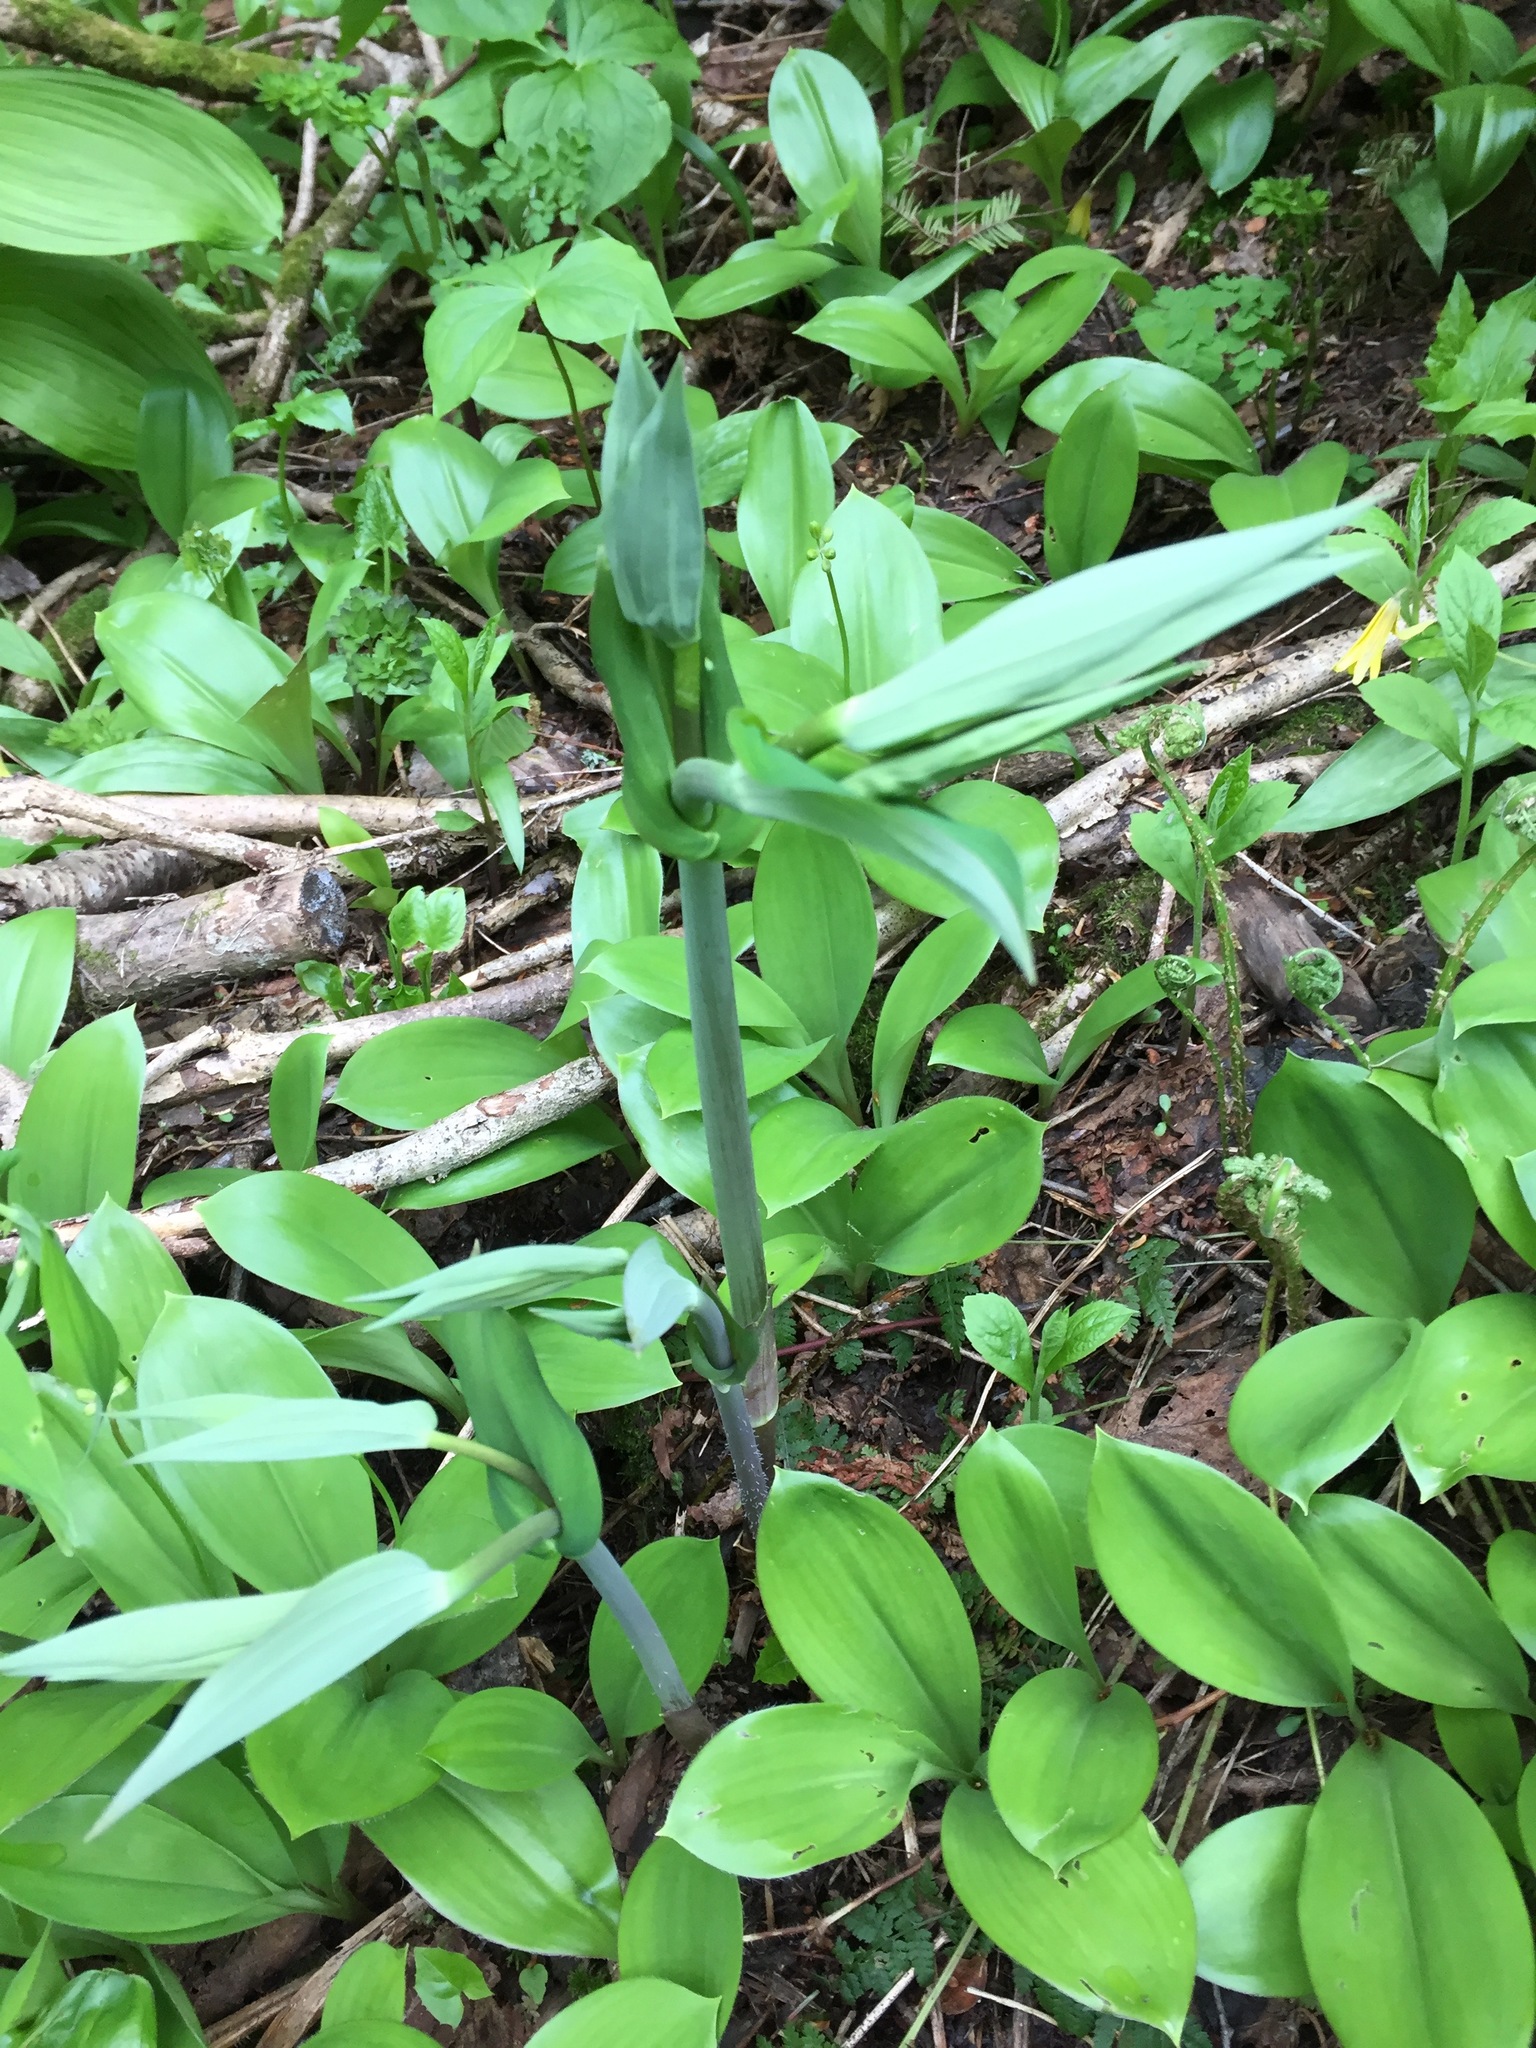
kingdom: Plantae
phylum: Tracheophyta
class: Liliopsida
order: Liliales
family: Liliaceae
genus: Streptopus
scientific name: Streptopus amplexifolius
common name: Clasp twisted stalk
